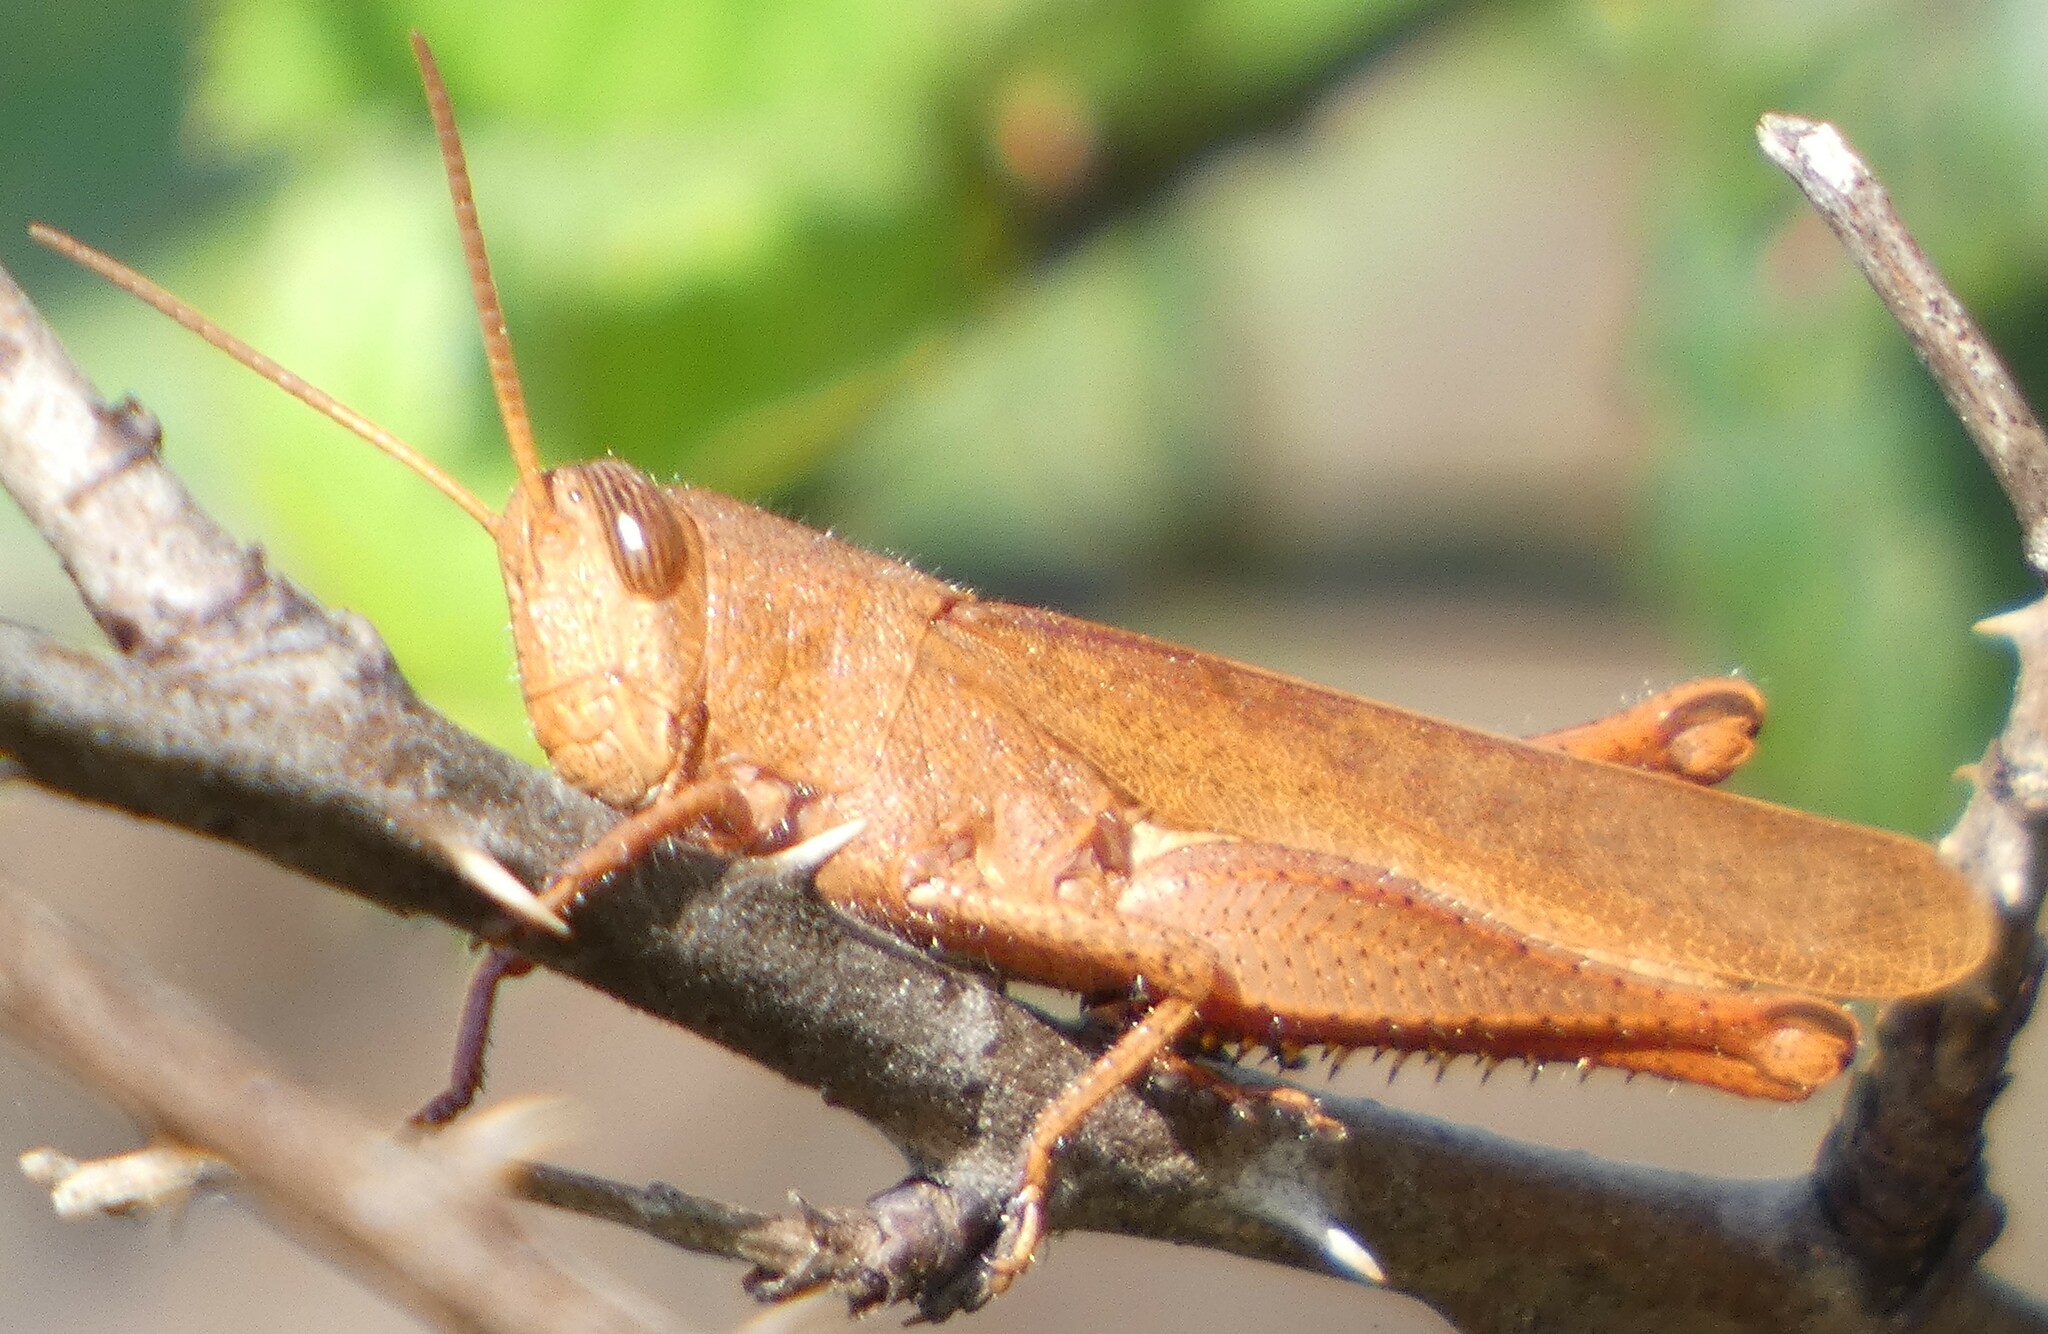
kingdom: Animalia
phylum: Arthropoda
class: Insecta
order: Orthoptera
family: Acrididae
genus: Schistocerca
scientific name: Schistocerca damnifica
